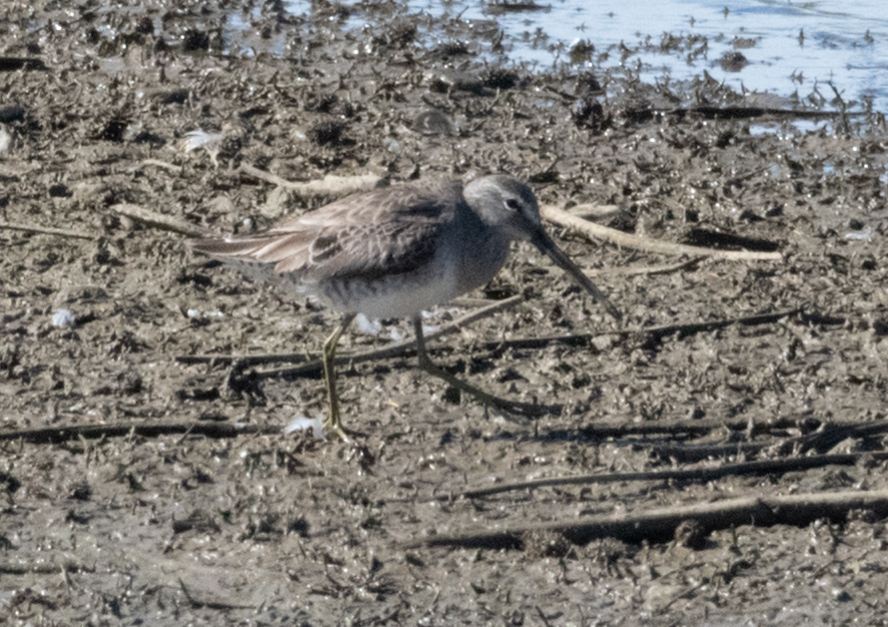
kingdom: Animalia
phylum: Chordata
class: Aves
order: Charadriiformes
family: Scolopacidae
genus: Limnodromus
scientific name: Limnodromus scolopaceus
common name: Long-billed dowitcher
